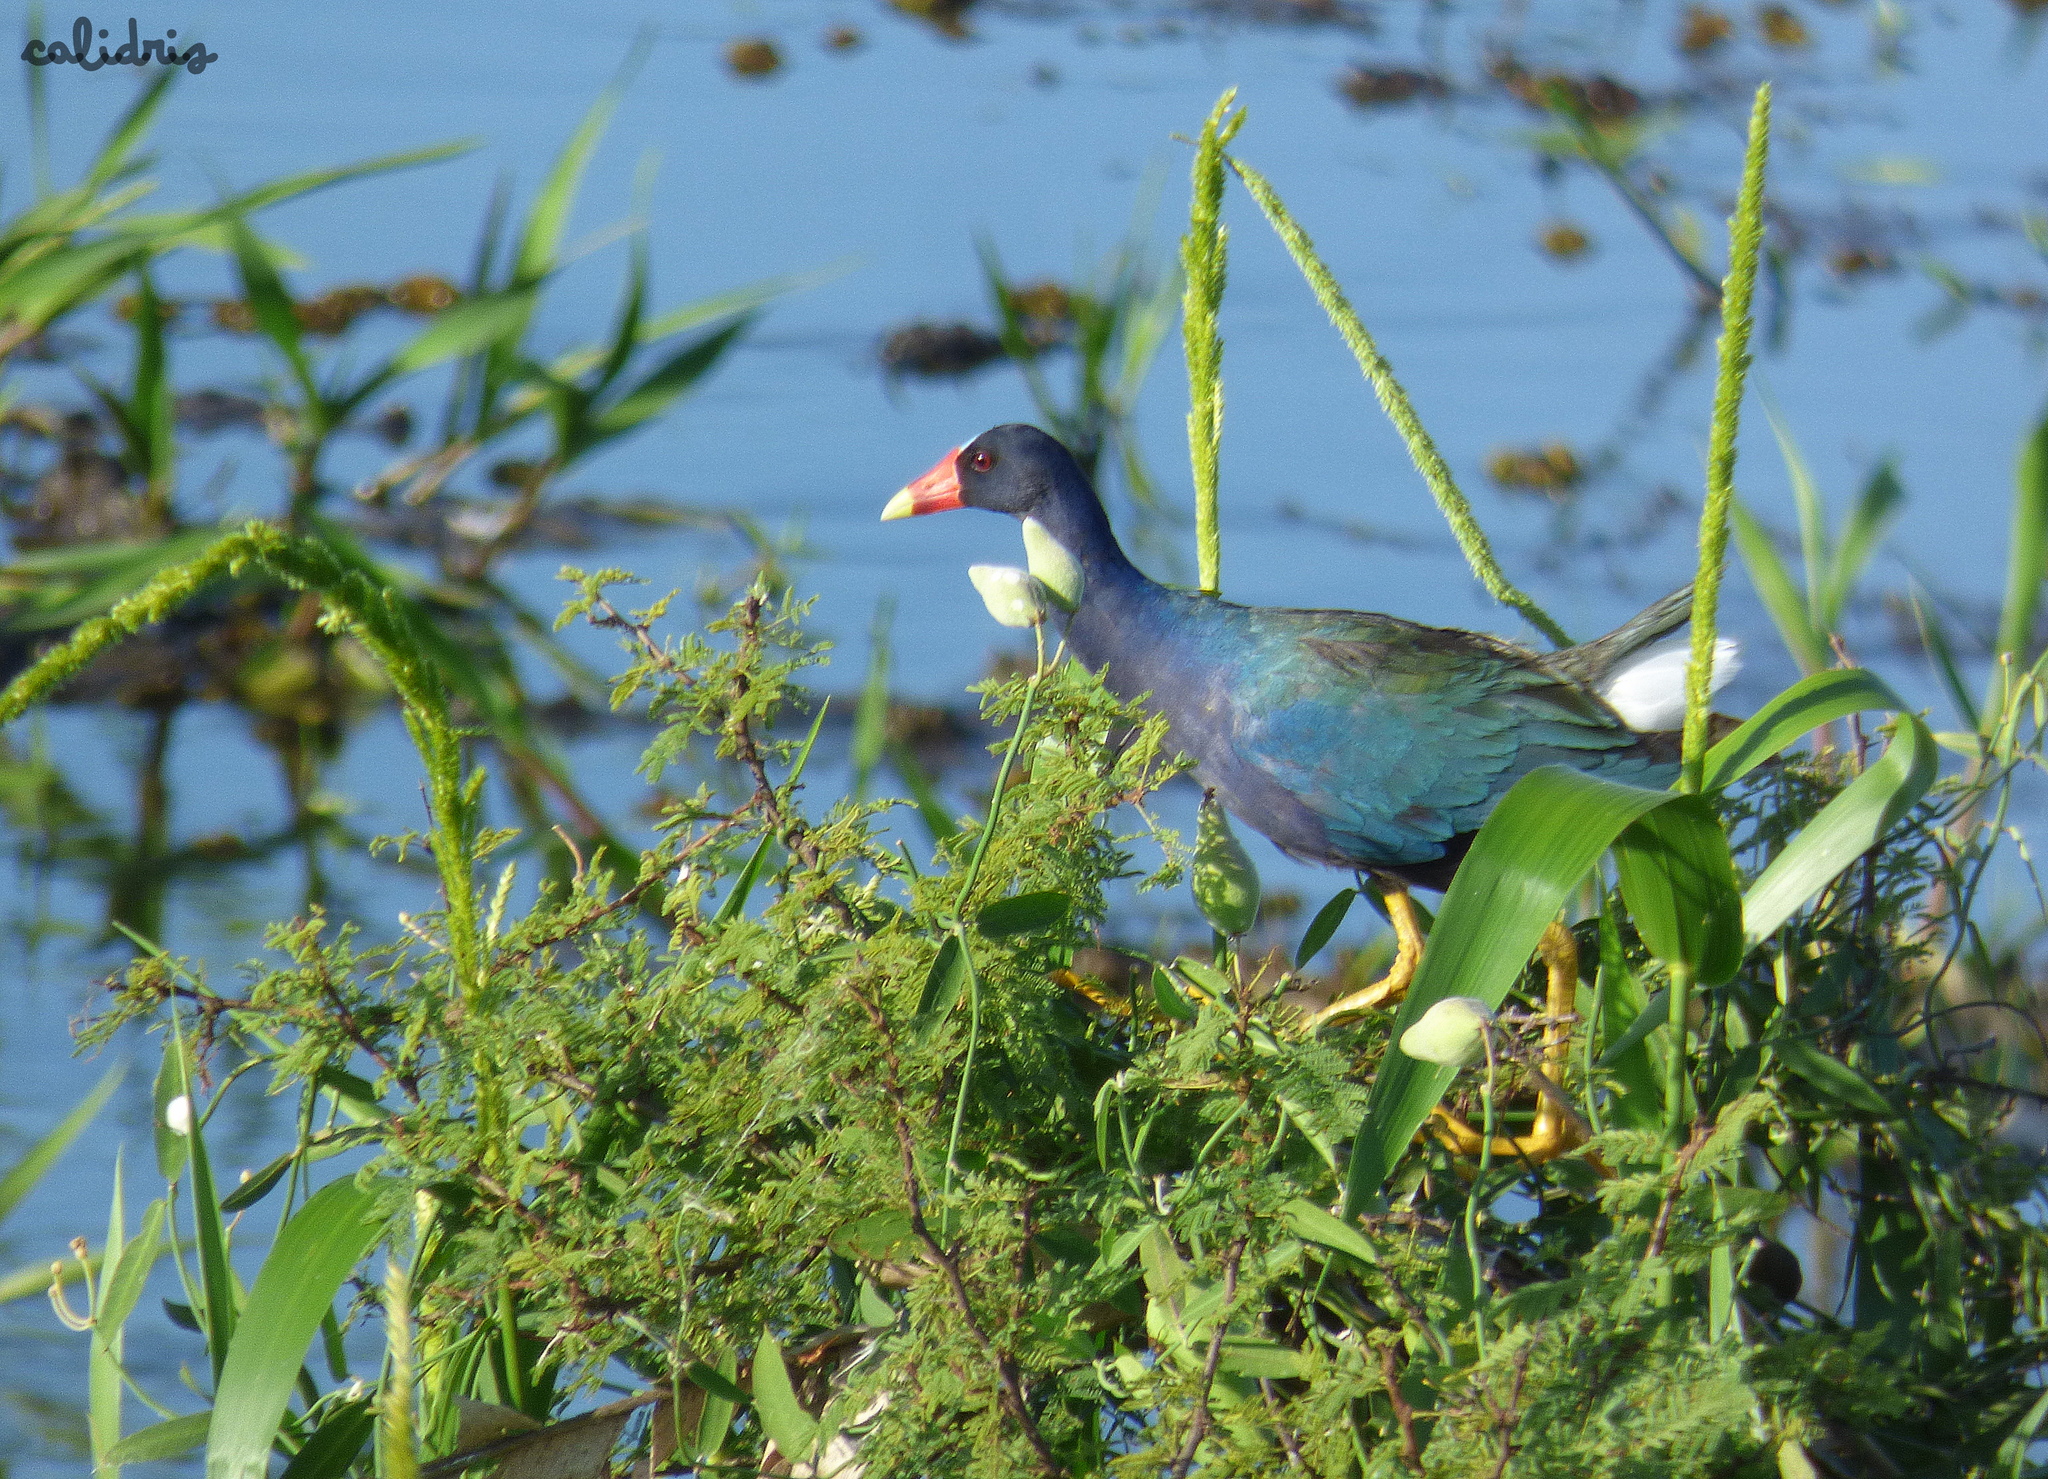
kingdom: Animalia
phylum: Chordata
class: Aves
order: Gruiformes
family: Rallidae
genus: Porphyrio
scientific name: Porphyrio martinica
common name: Purple gallinule
